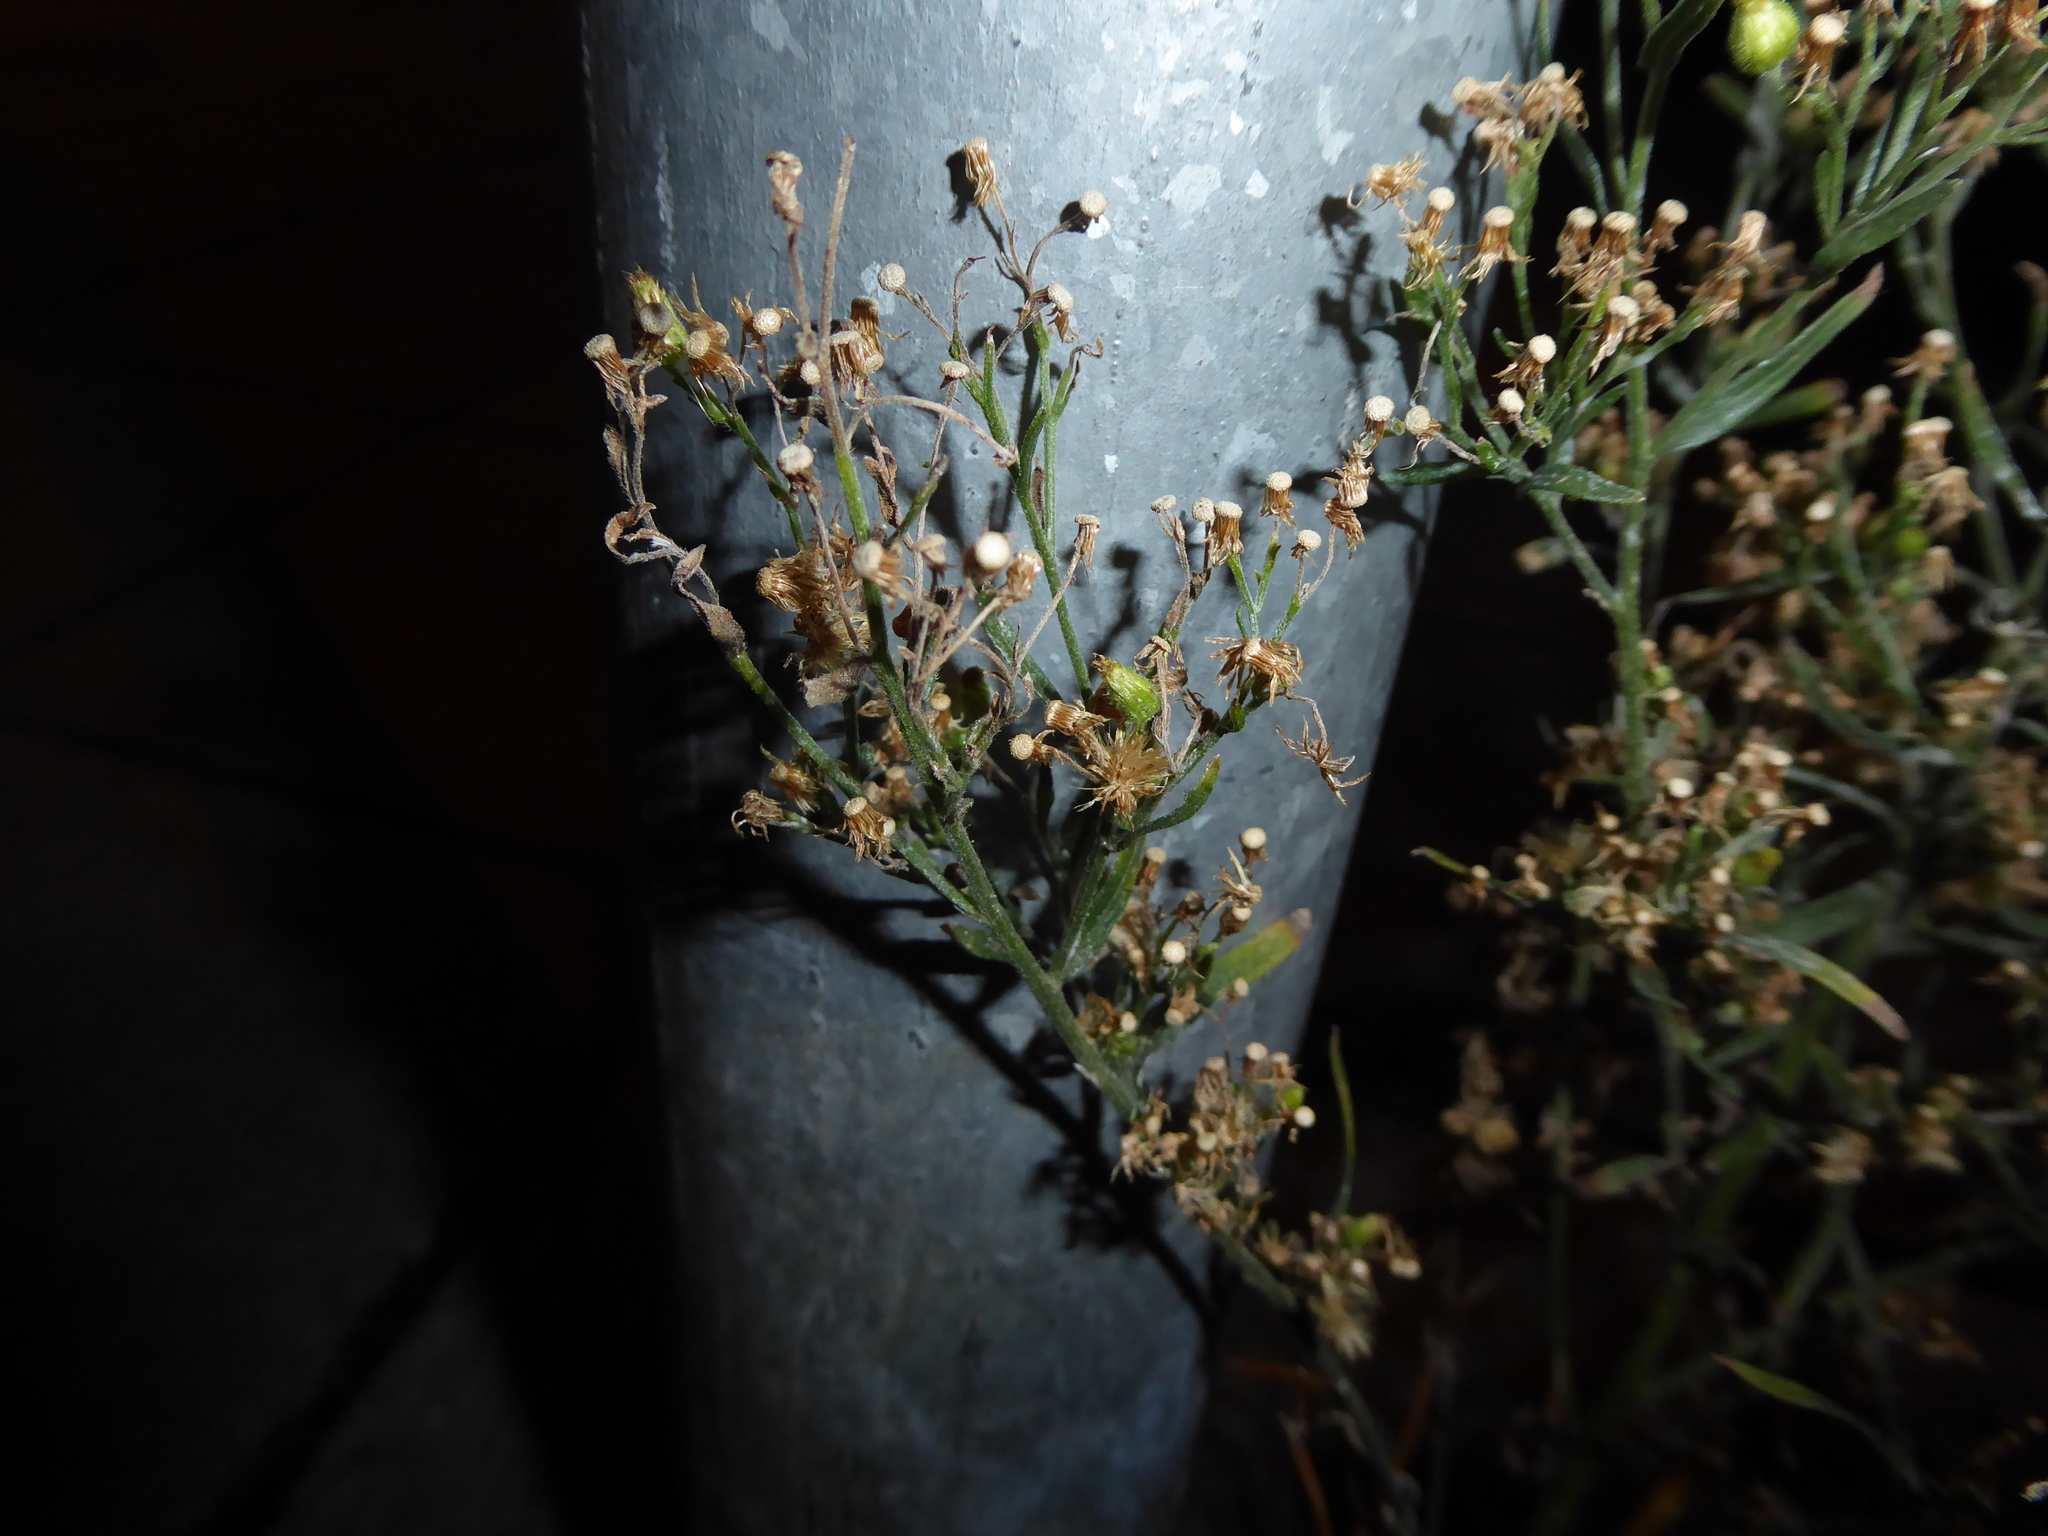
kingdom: Plantae
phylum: Tracheophyta
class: Magnoliopsida
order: Asterales
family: Asteraceae
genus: Erigeron
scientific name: Erigeron sumatrensis
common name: Daisy
